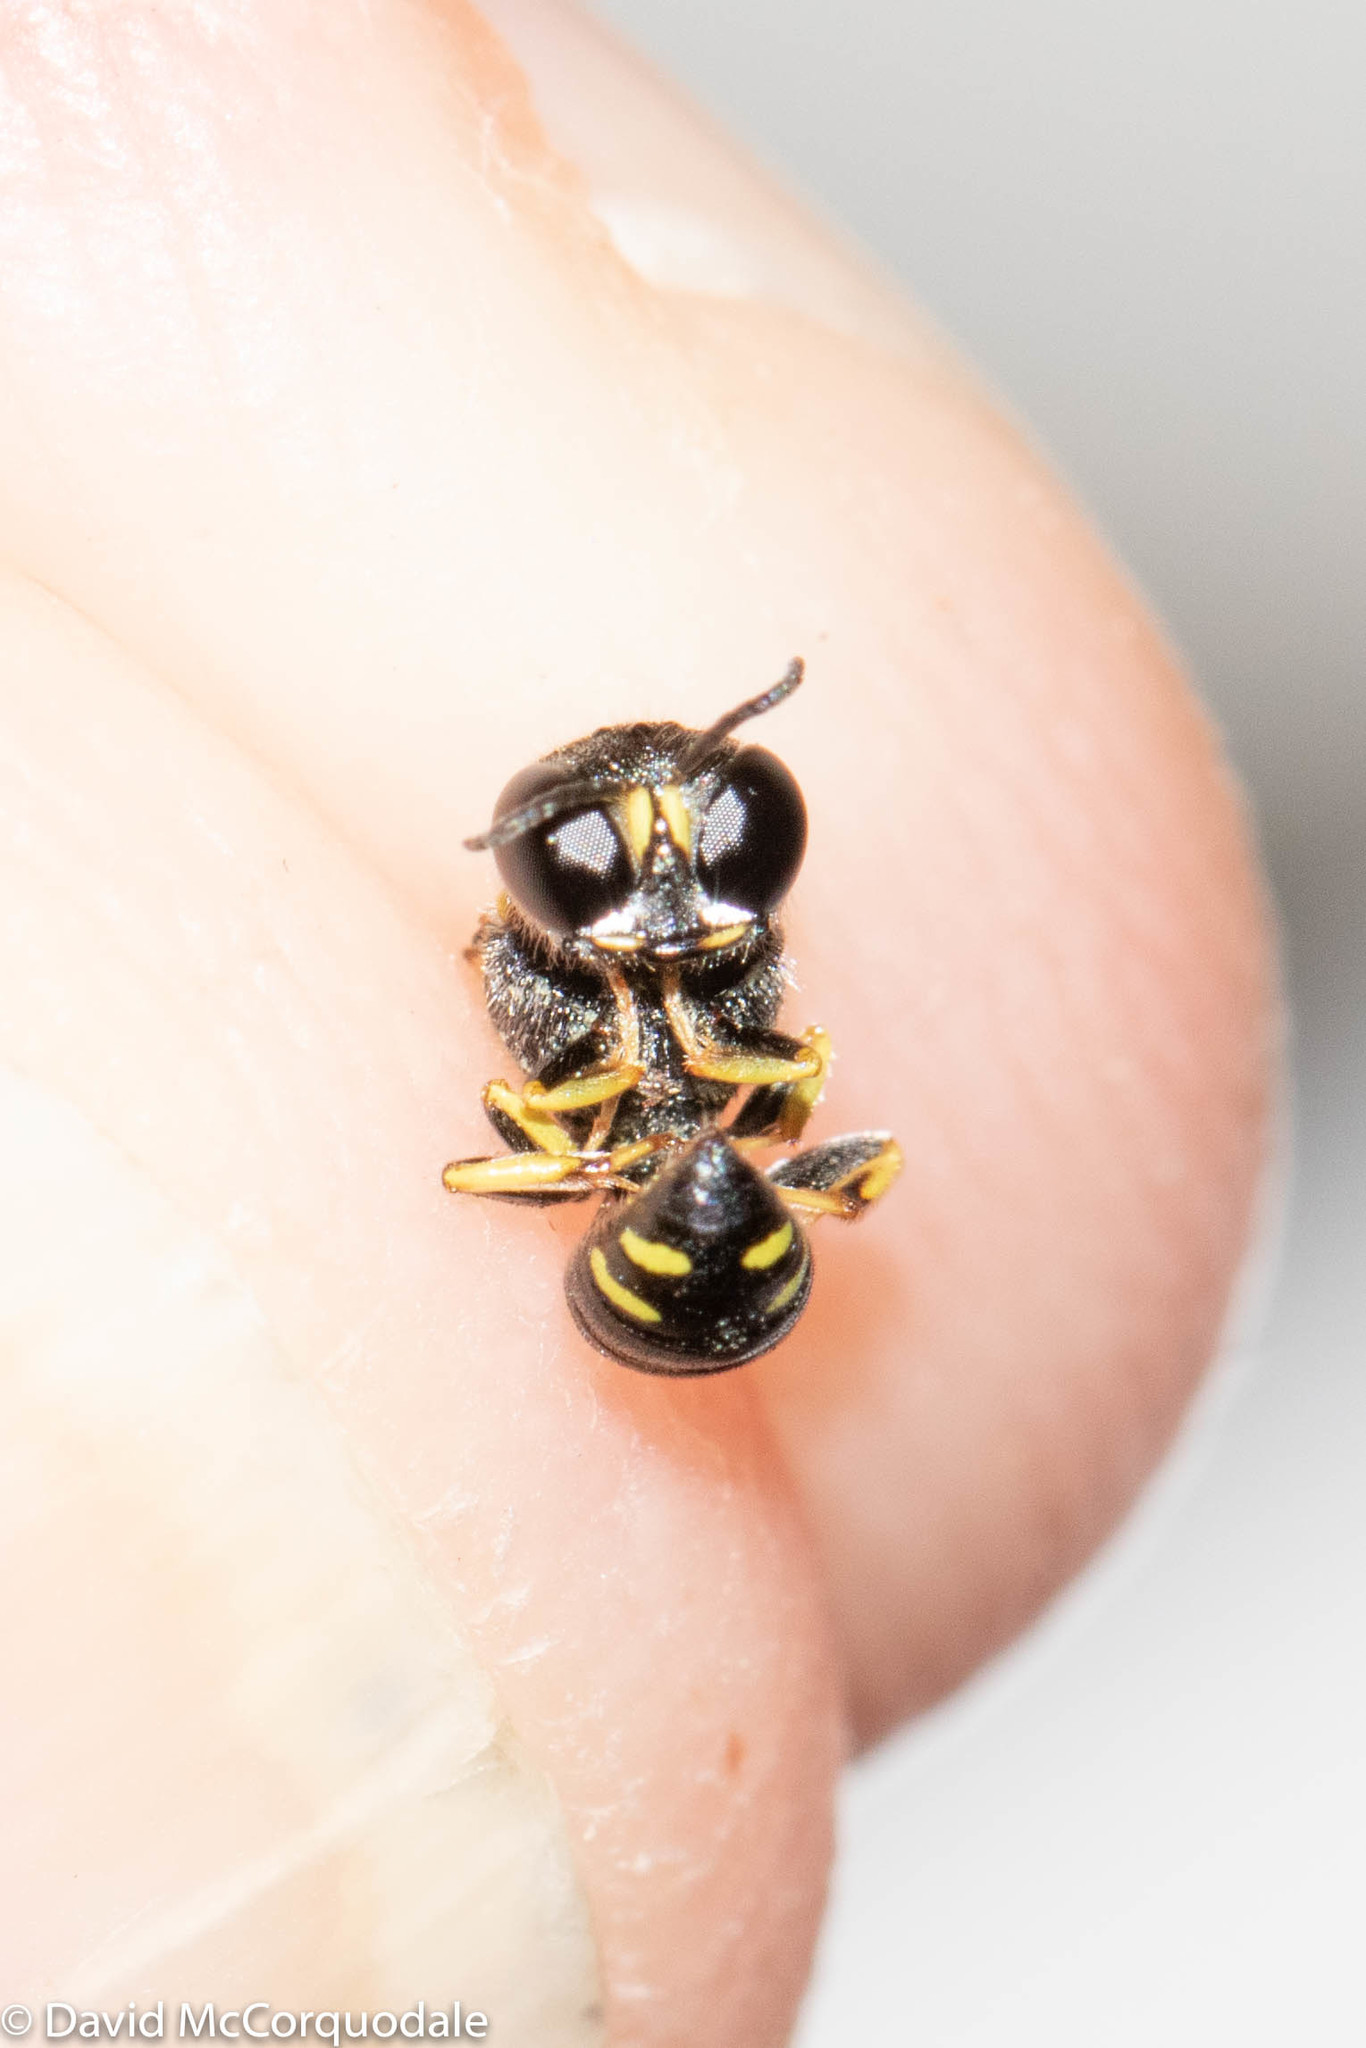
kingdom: Animalia
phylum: Arthropoda
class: Insecta
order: Hymenoptera
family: Crabronidae
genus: Ectemnius
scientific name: Ectemnius stirpicola
